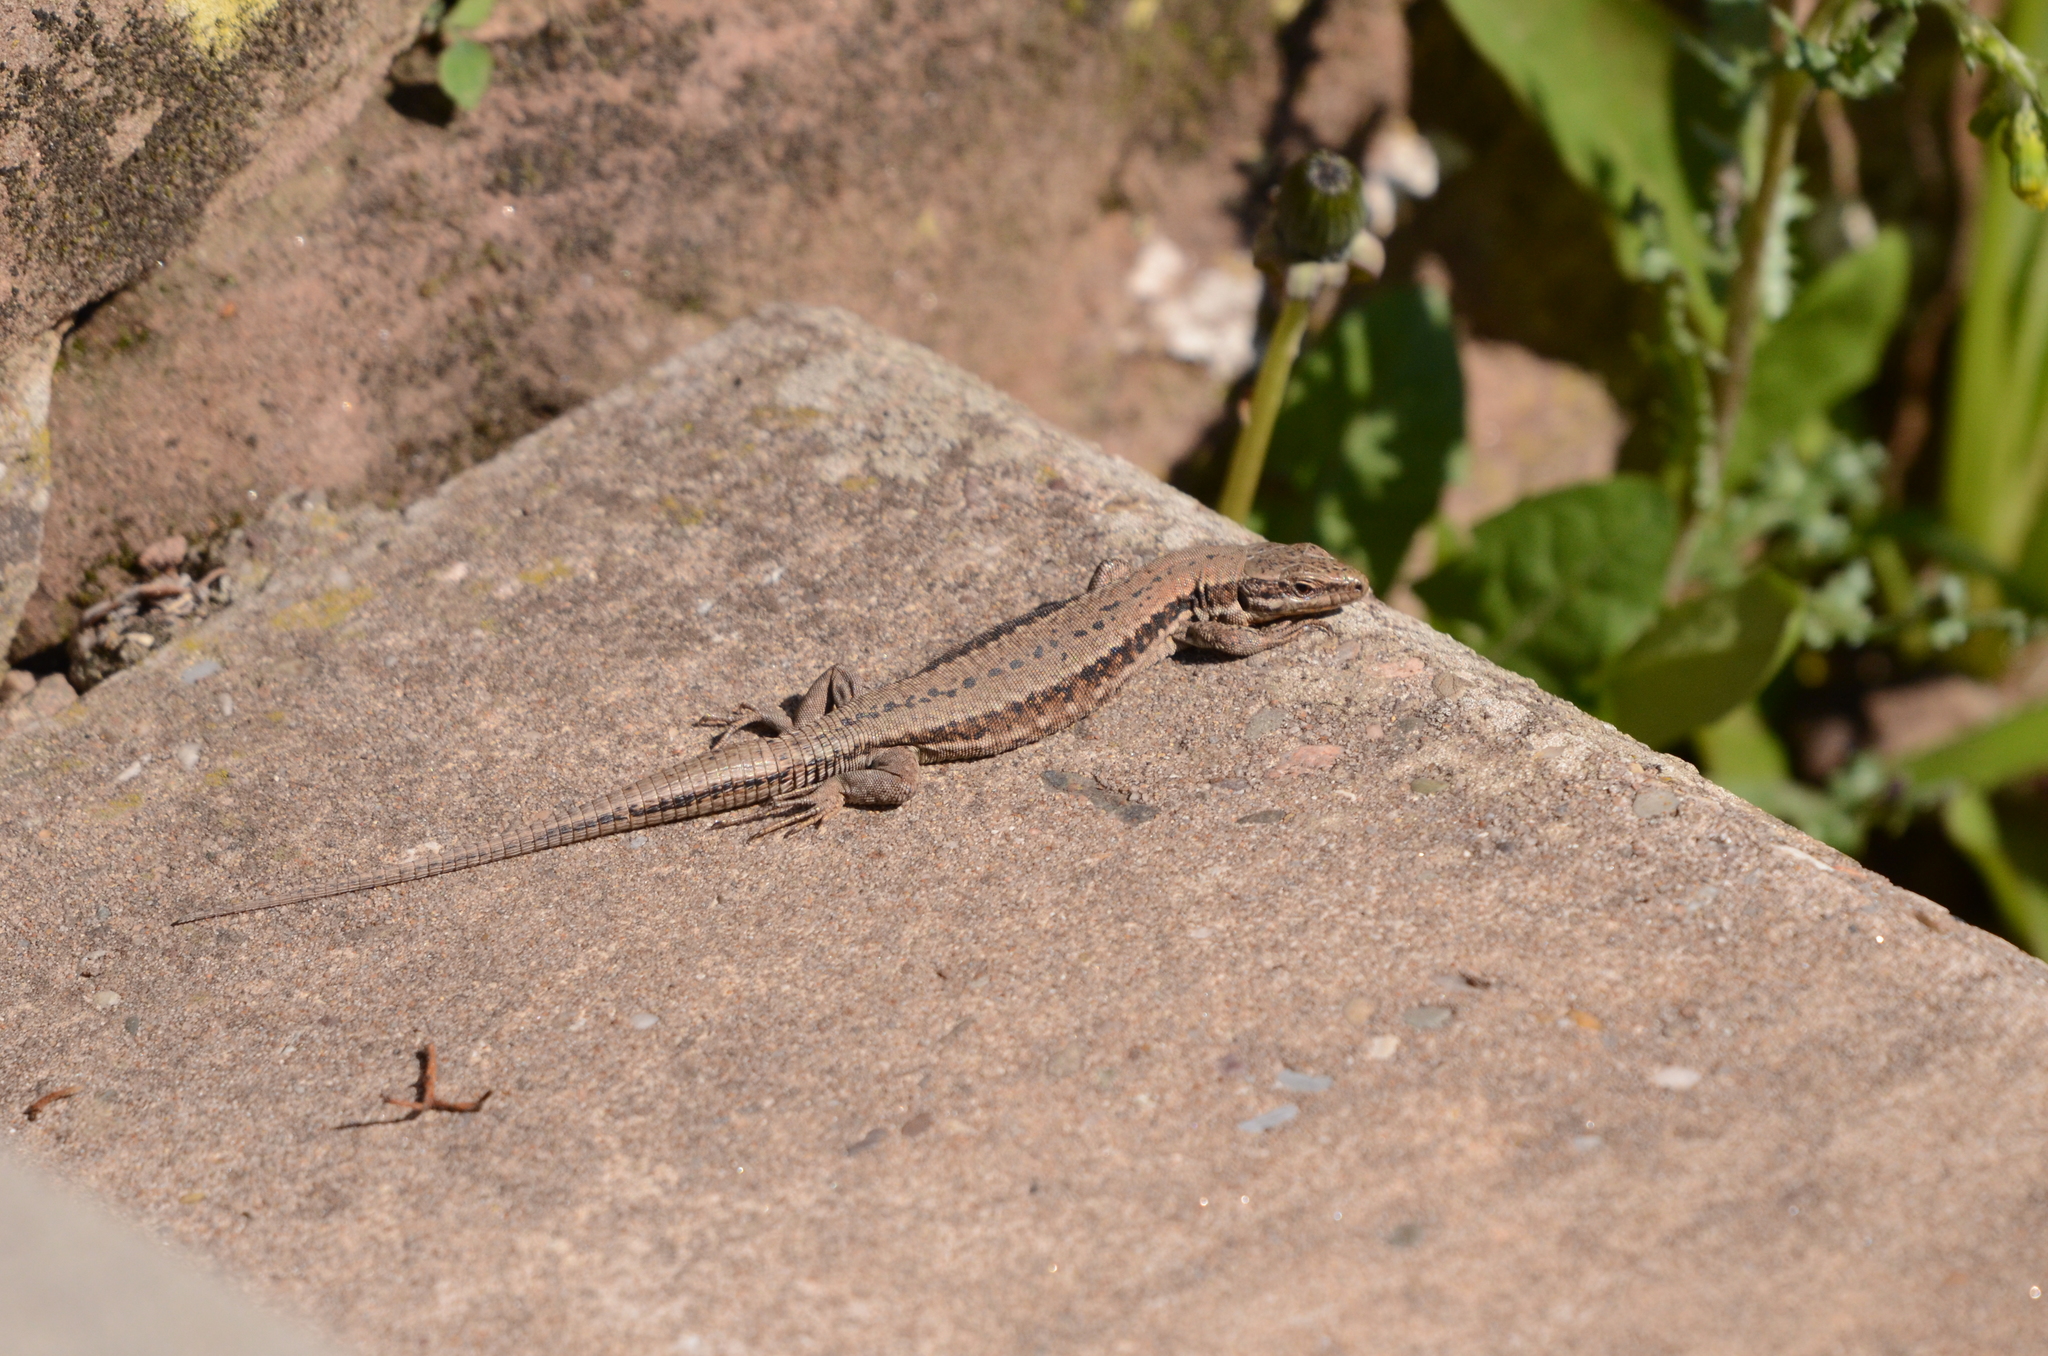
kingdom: Animalia
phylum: Chordata
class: Squamata
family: Lacertidae
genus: Podarcis
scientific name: Podarcis muralis
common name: Common wall lizard
